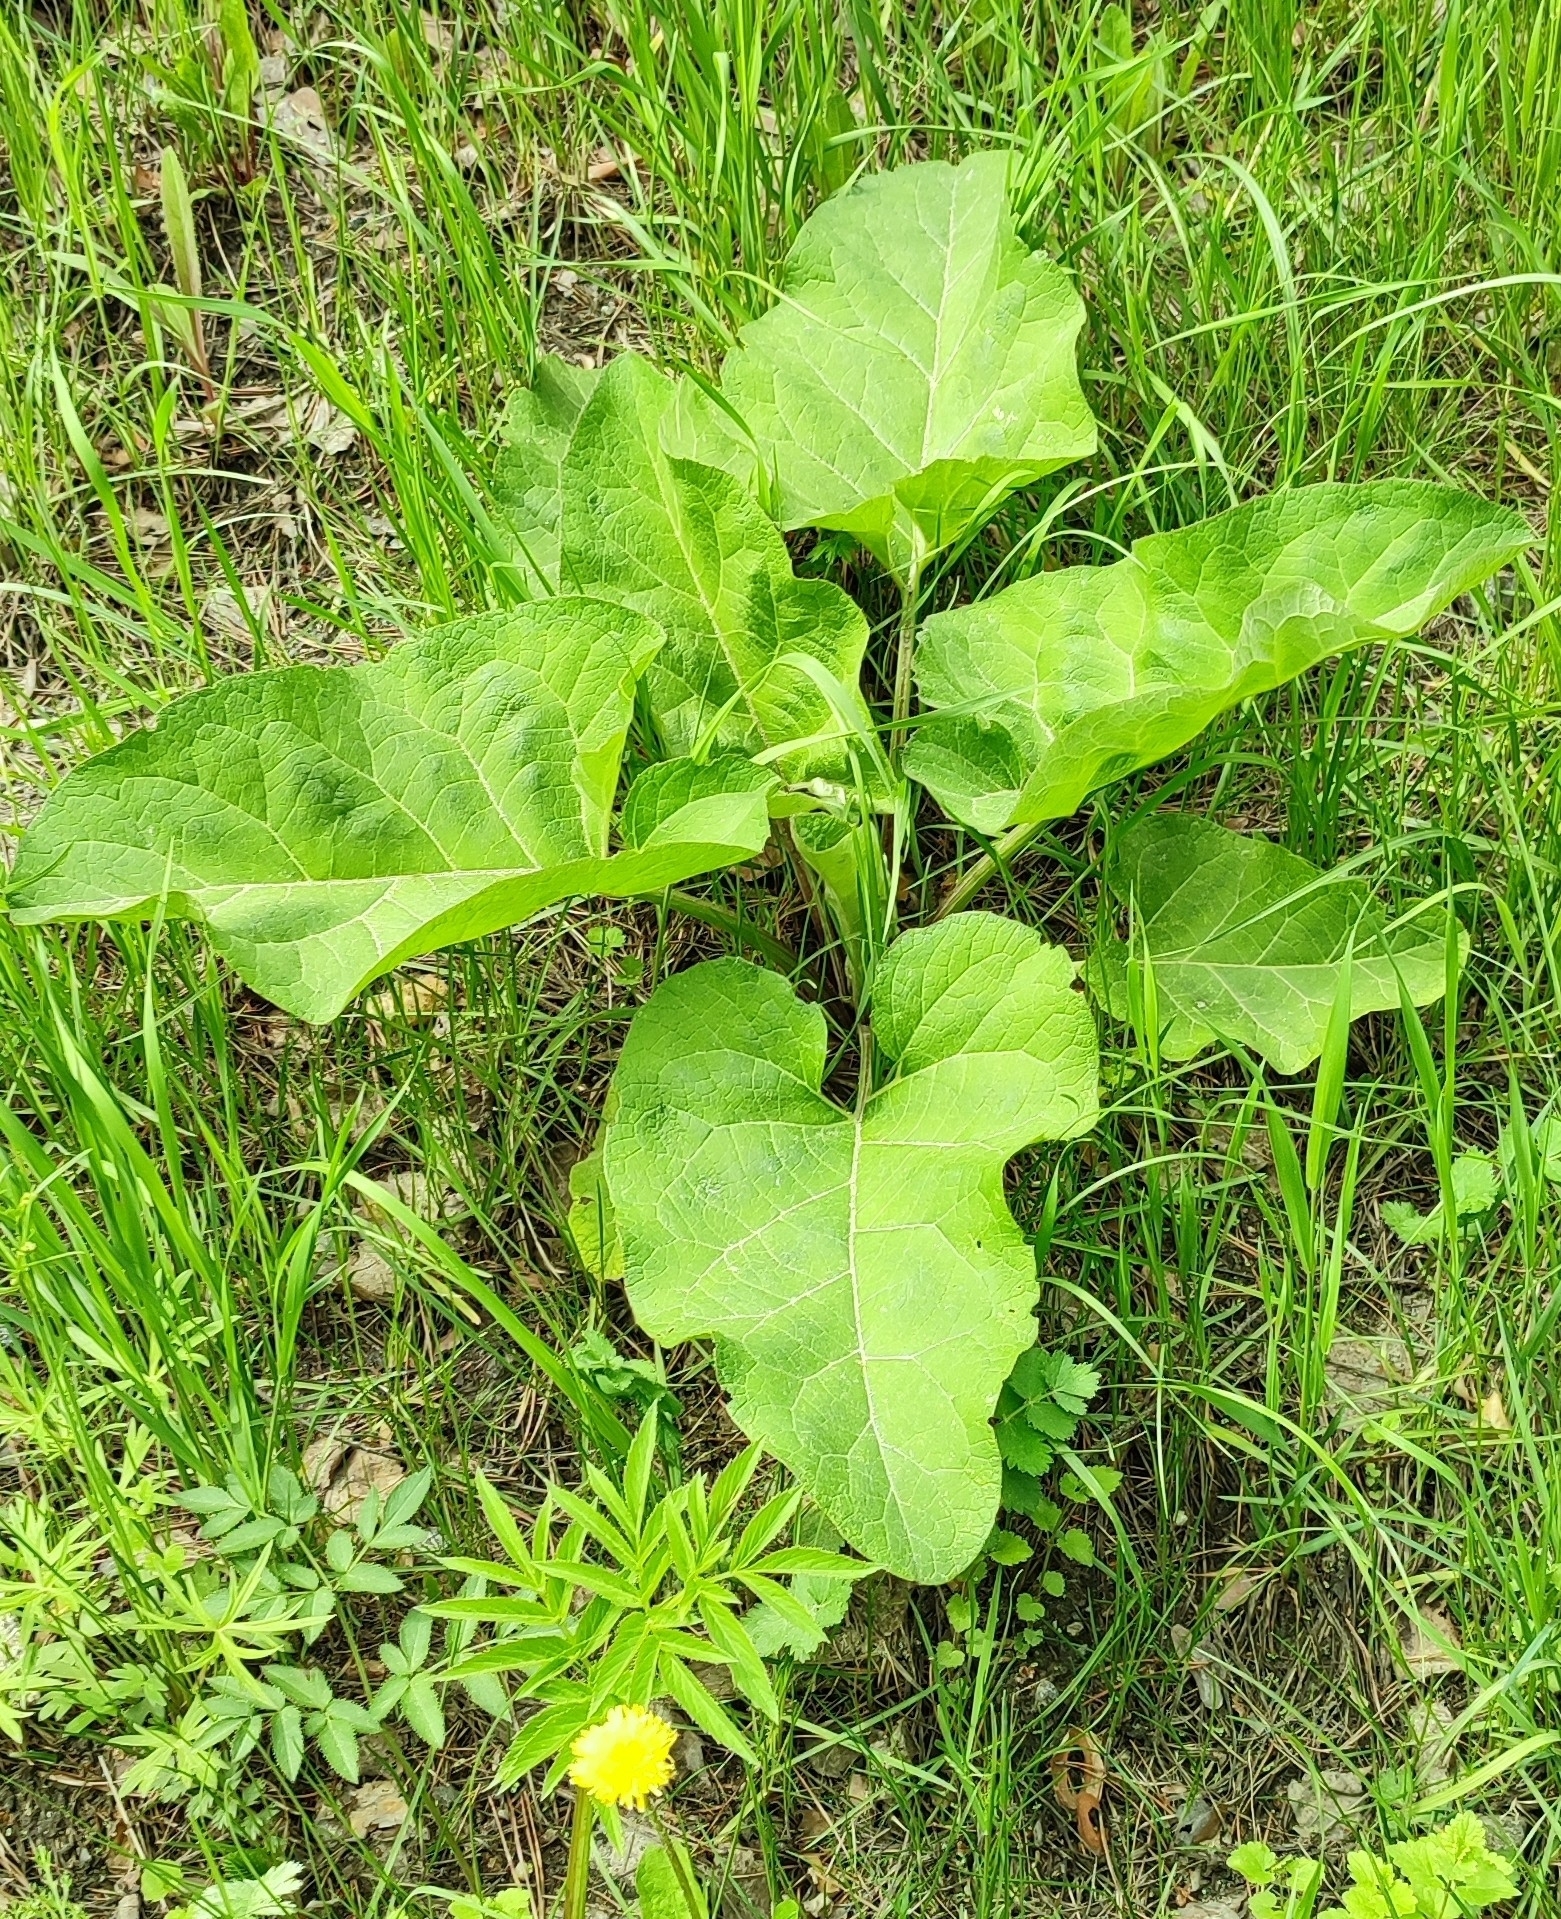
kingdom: Plantae
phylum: Tracheophyta
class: Magnoliopsida
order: Asterales
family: Asteraceae
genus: Arctium
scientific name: Arctium tomentosum
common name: Woolly burdock
